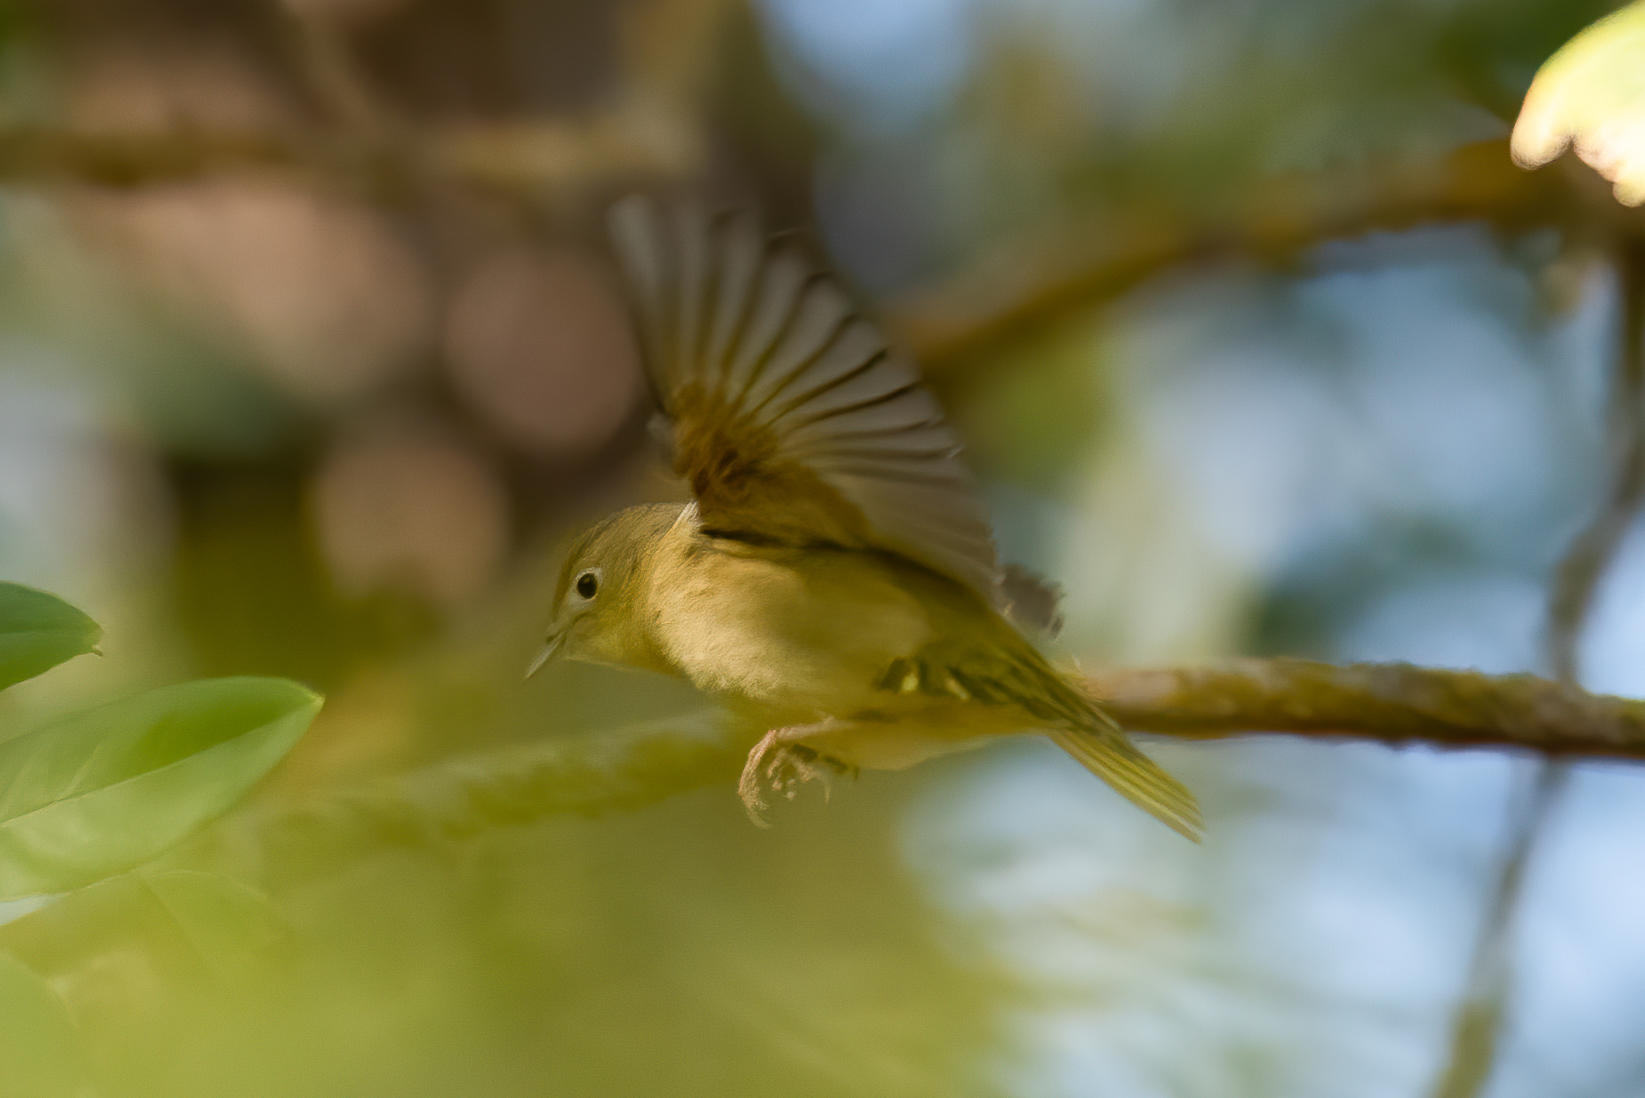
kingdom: Animalia
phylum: Chordata
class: Aves
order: Passeriformes
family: Parulidae
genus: Setophaga
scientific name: Setophaga petechia
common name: Yellow warbler
